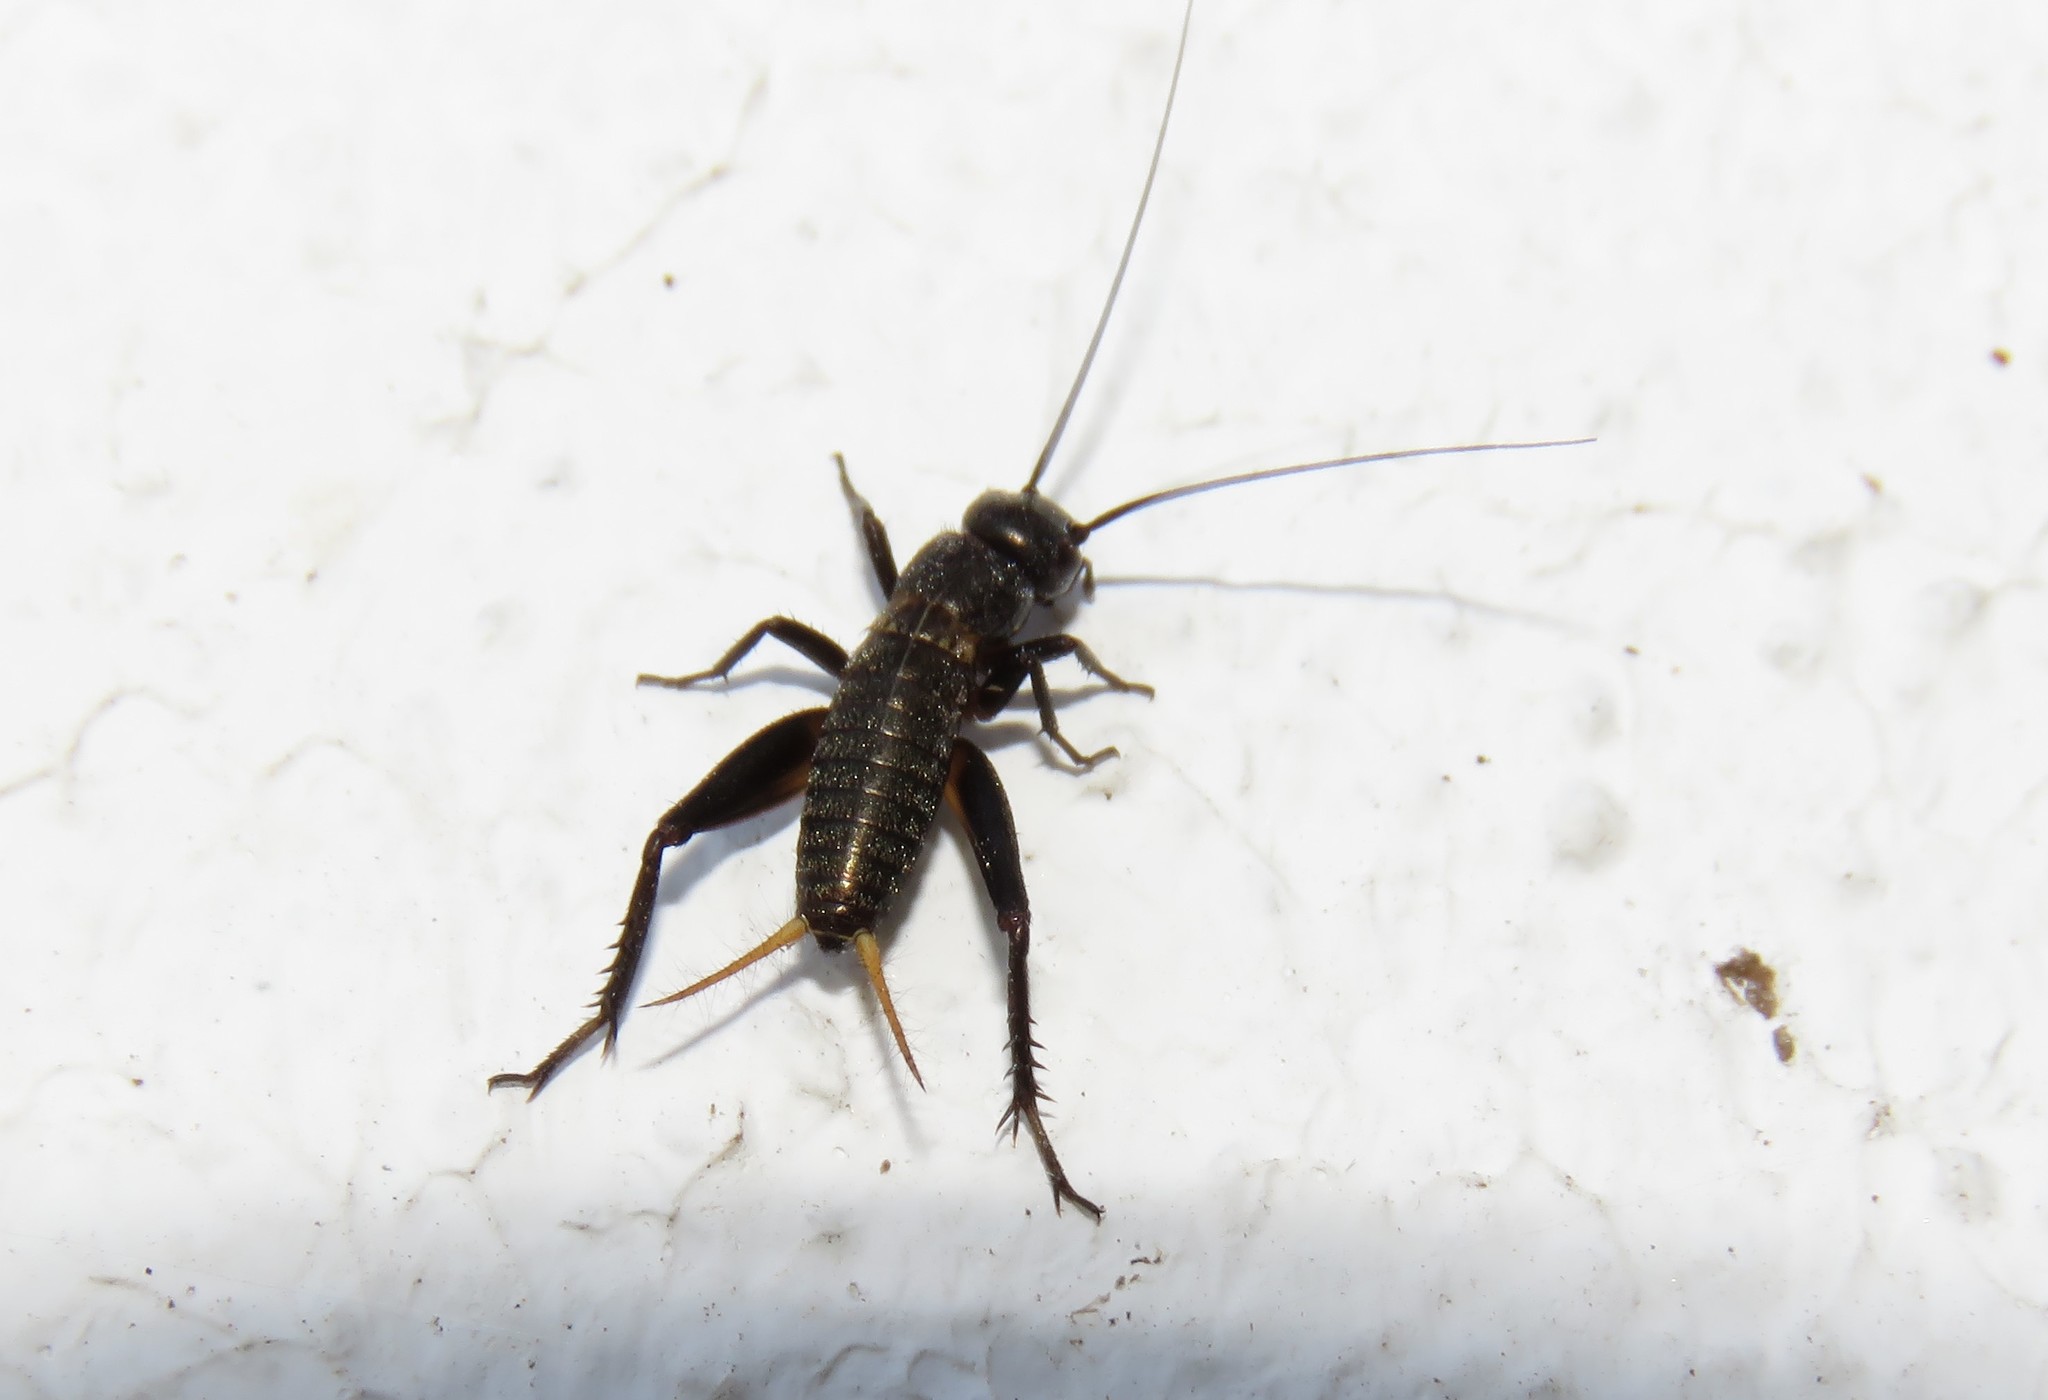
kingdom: Animalia
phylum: Arthropoda
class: Insecta
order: Orthoptera
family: Gryllidae
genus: Gryllus
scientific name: Gryllus bimaculatus
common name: Two-spotted cricket
